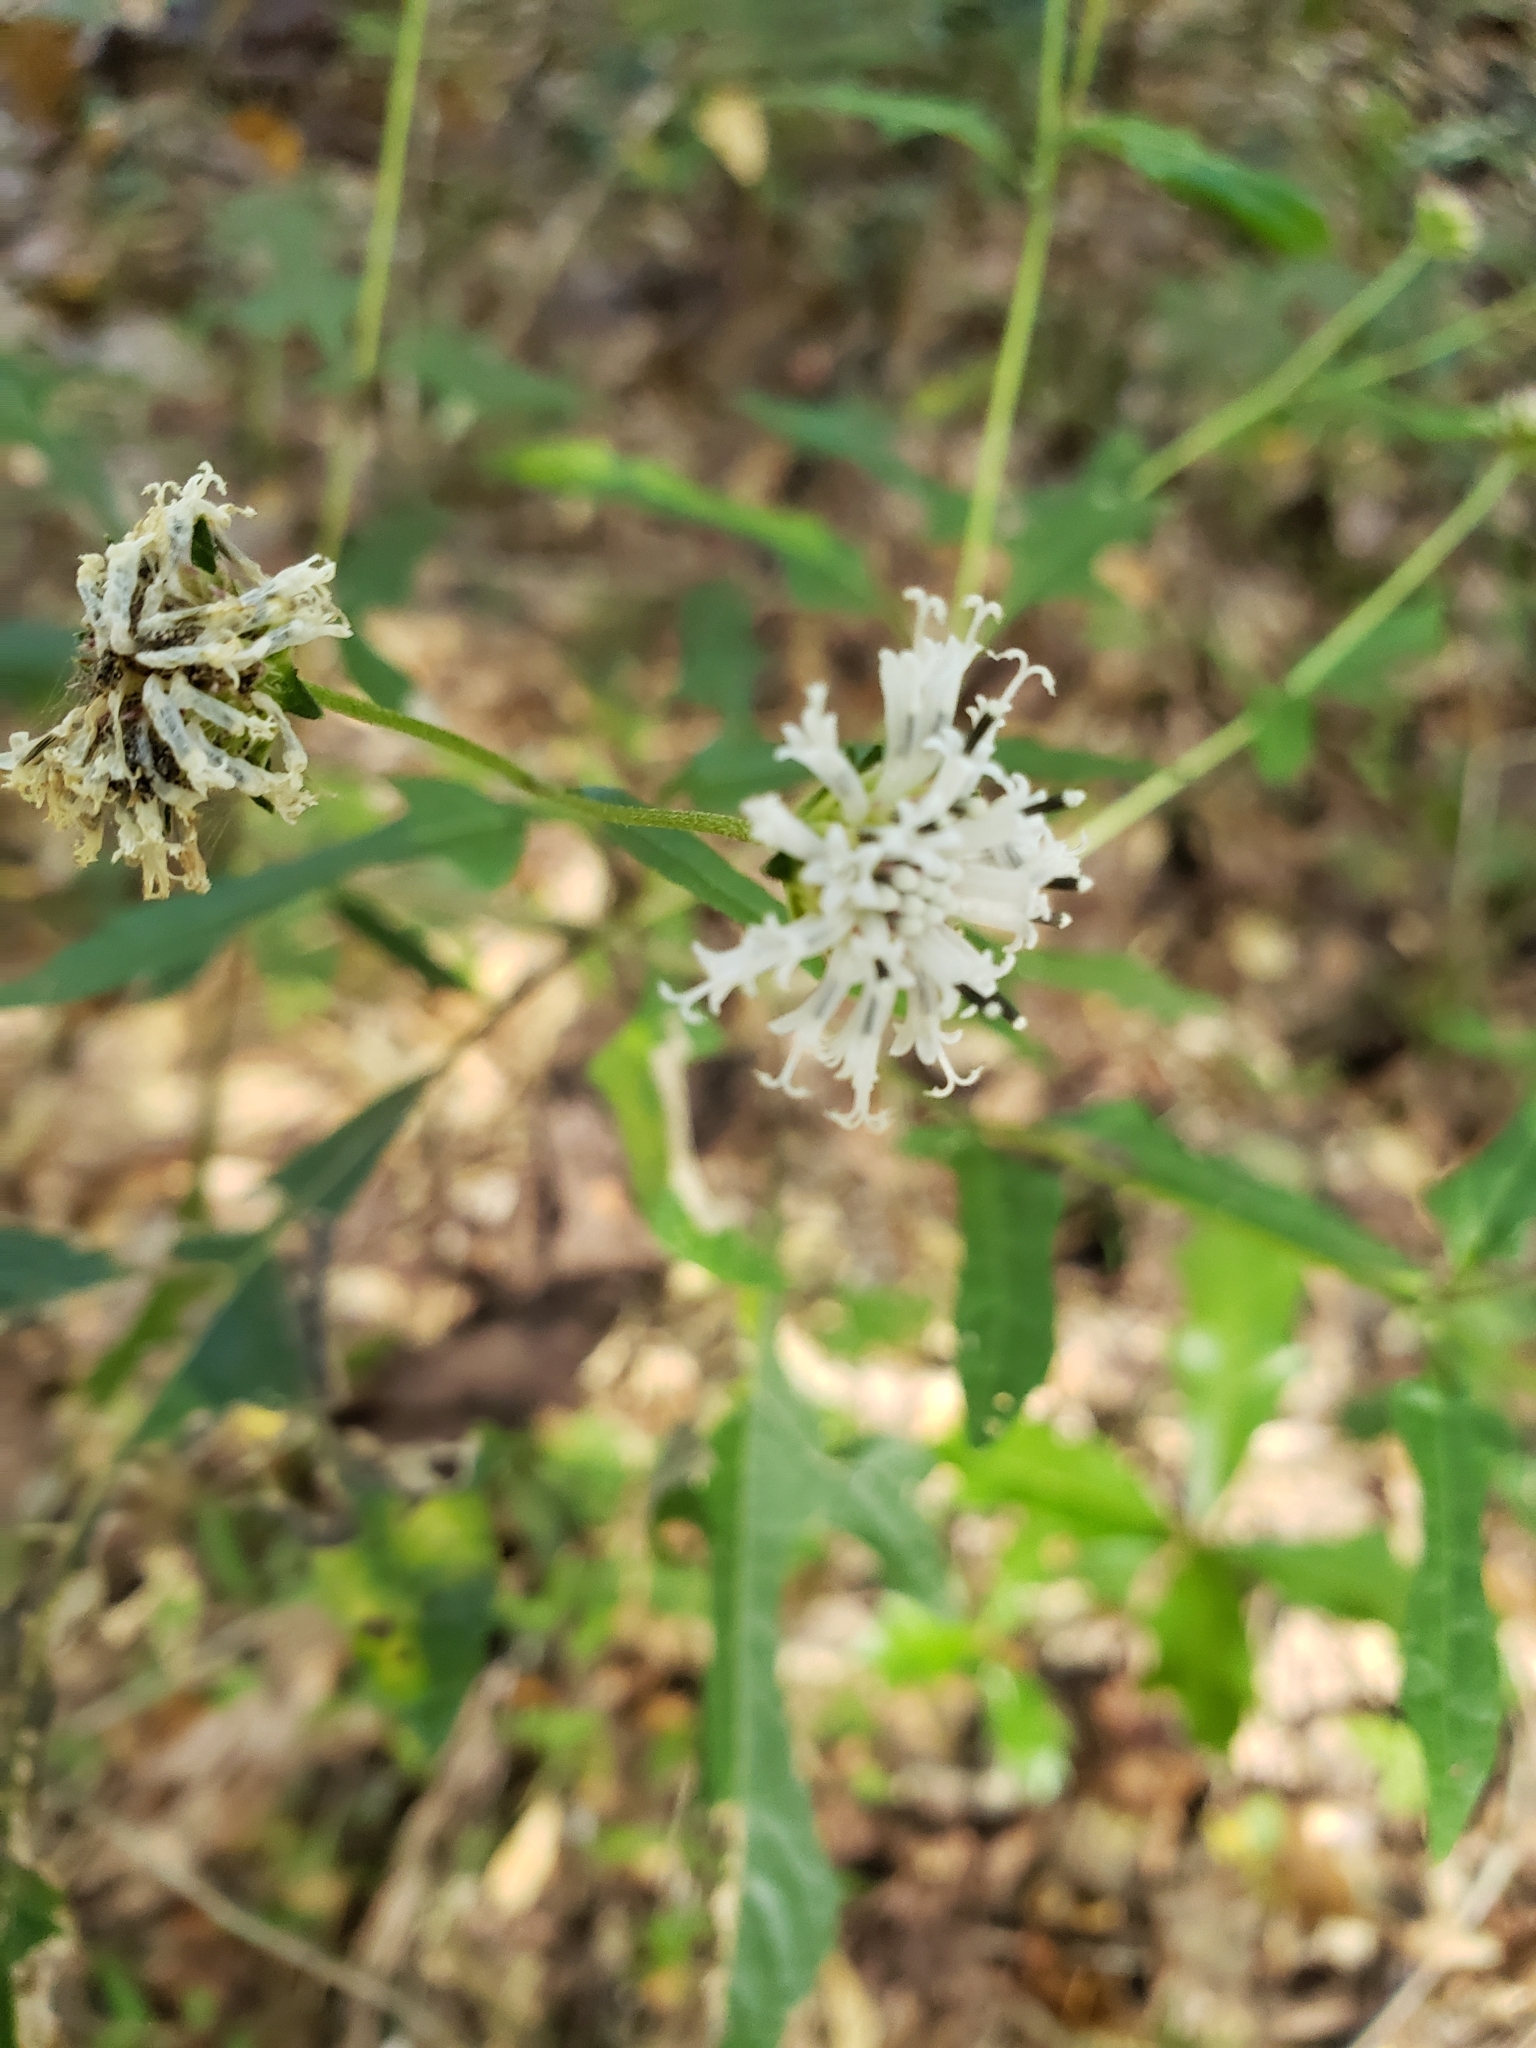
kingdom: Plantae
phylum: Tracheophyta
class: Magnoliopsida
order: Asterales
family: Asteraceae
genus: Melanthera
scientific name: Melanthera nivea
